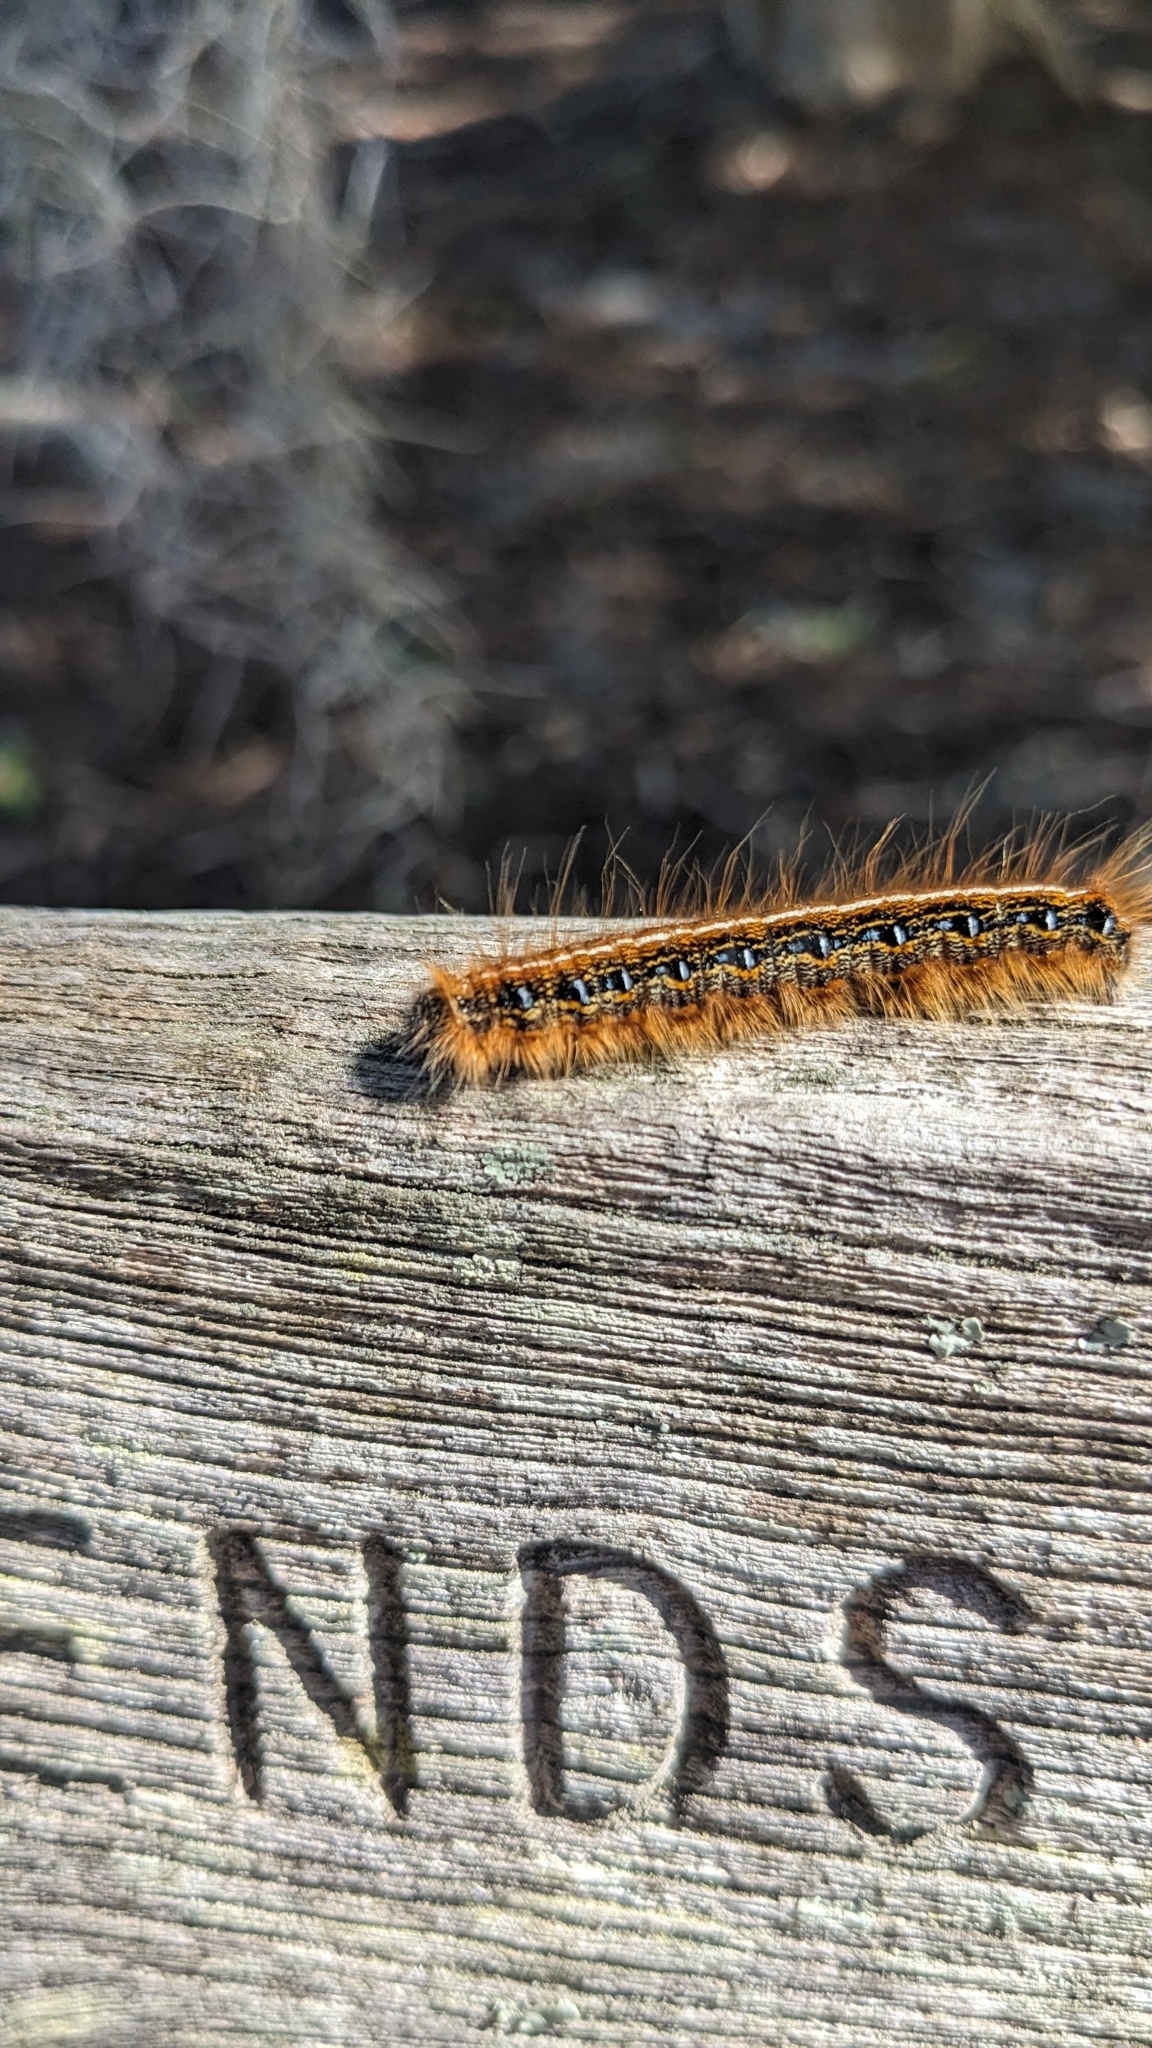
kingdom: Animalia
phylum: Arthropoda
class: Insecta
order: Lepidoptera
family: Lasiocampidae
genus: Malacosoma
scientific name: Malacosoma americana
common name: Eastern tent caterpillar moth
